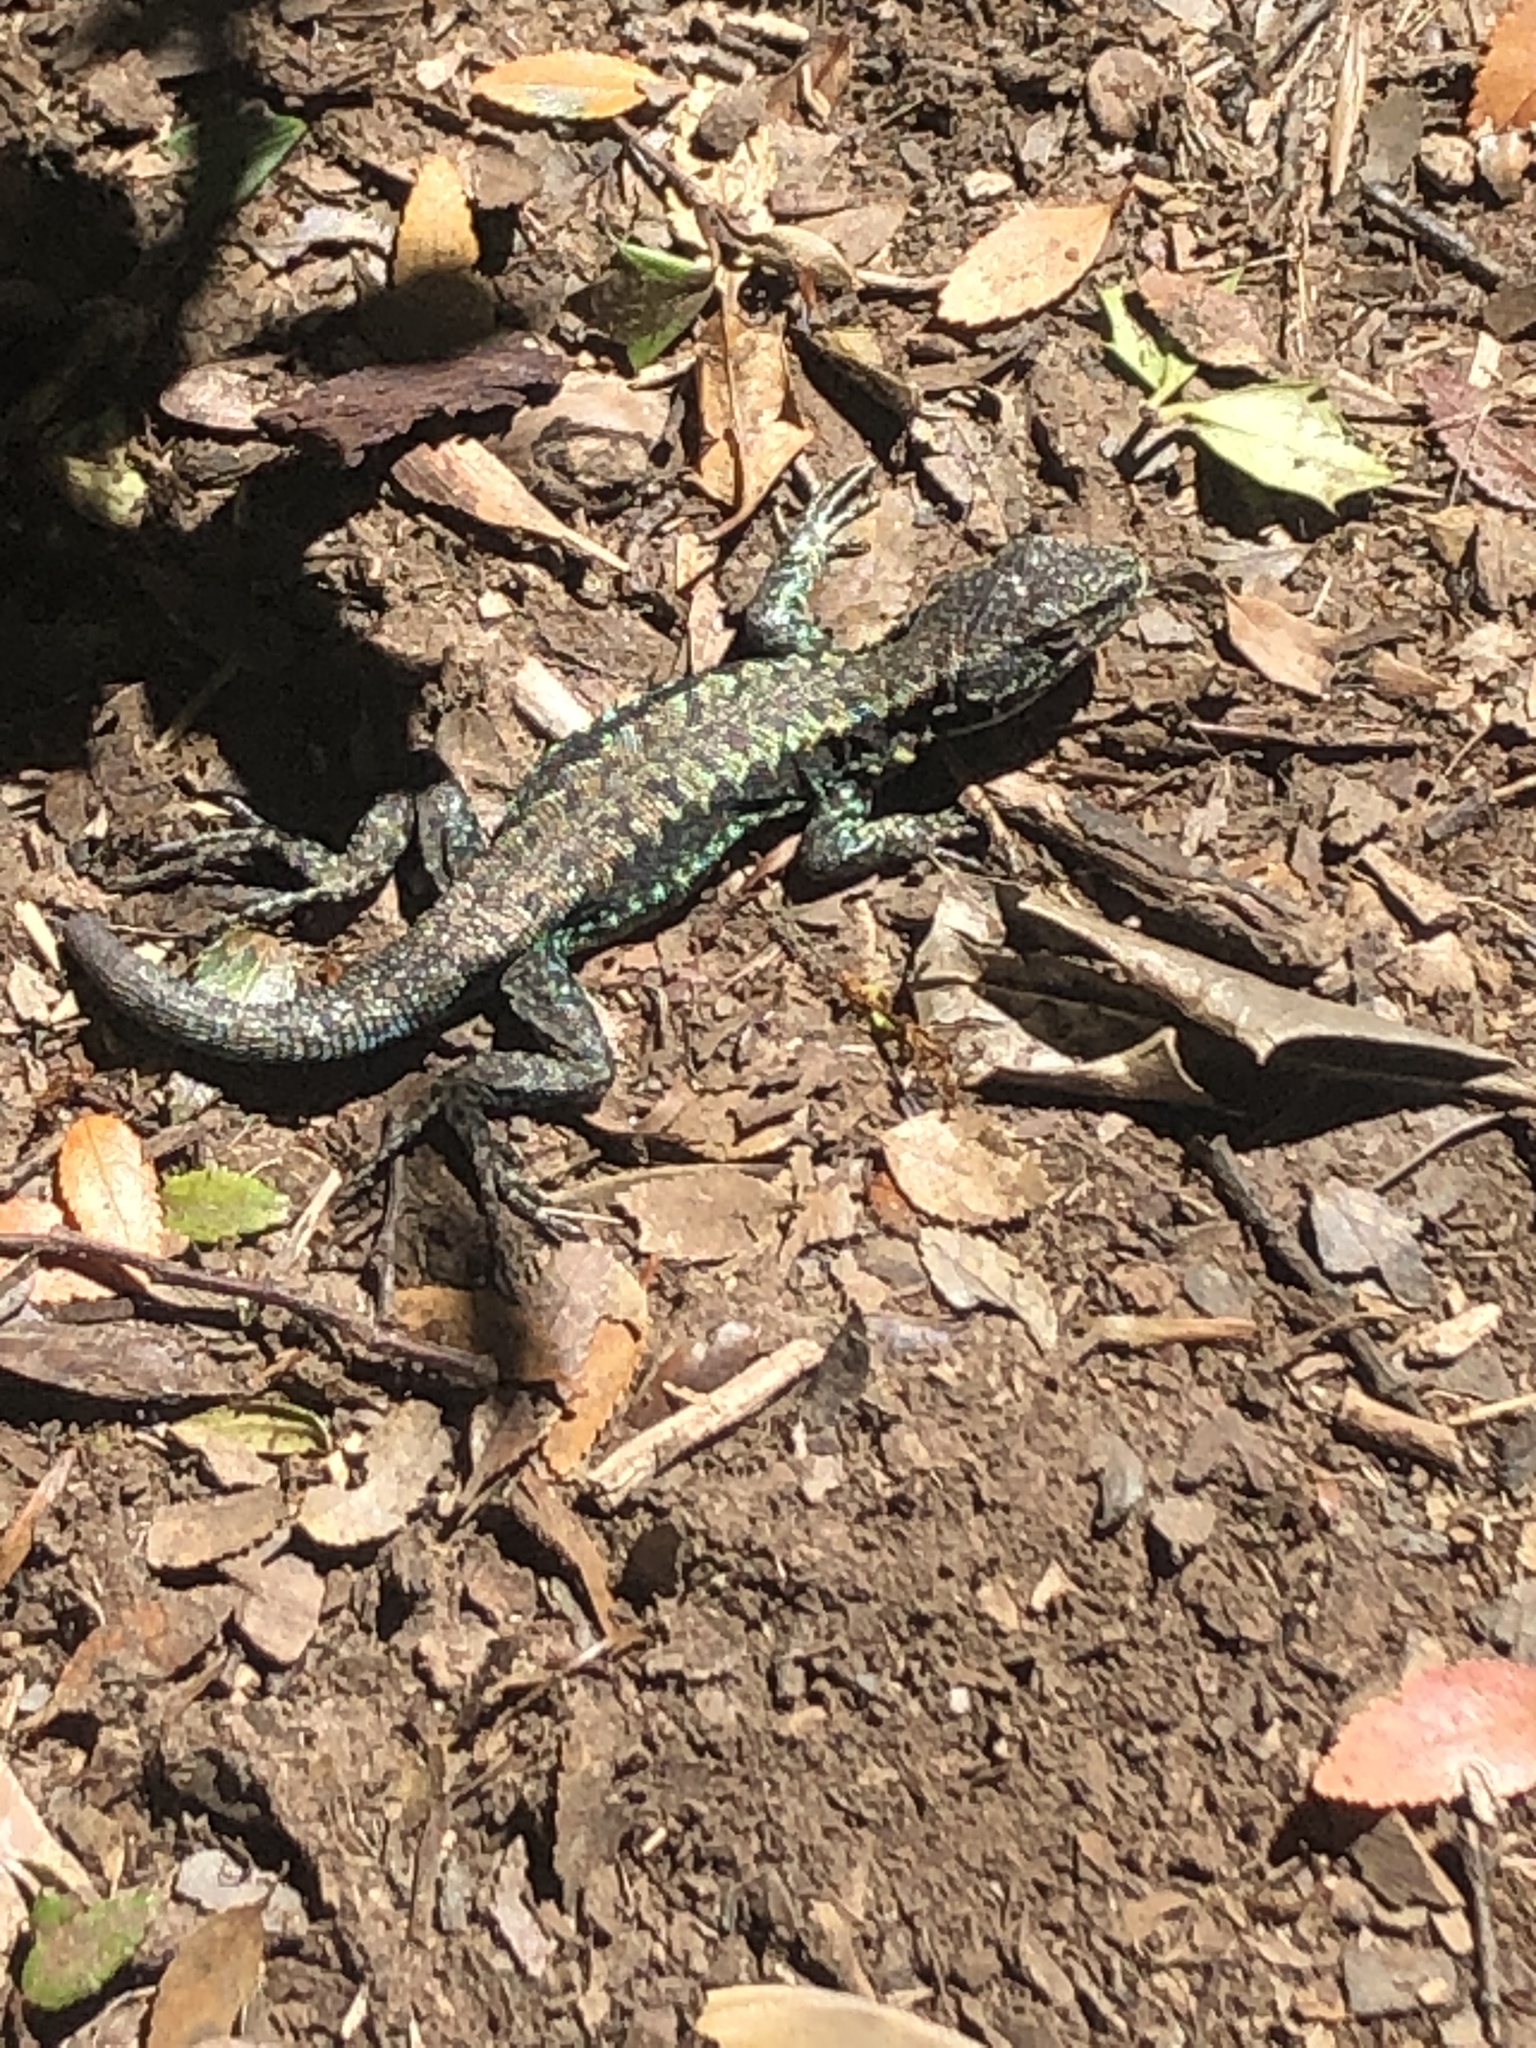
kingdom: Animalia
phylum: Chordata
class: Squamata
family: Liolaemidae
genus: Liolaemus
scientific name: Liolaemus pictus
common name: Painted tree iguana
